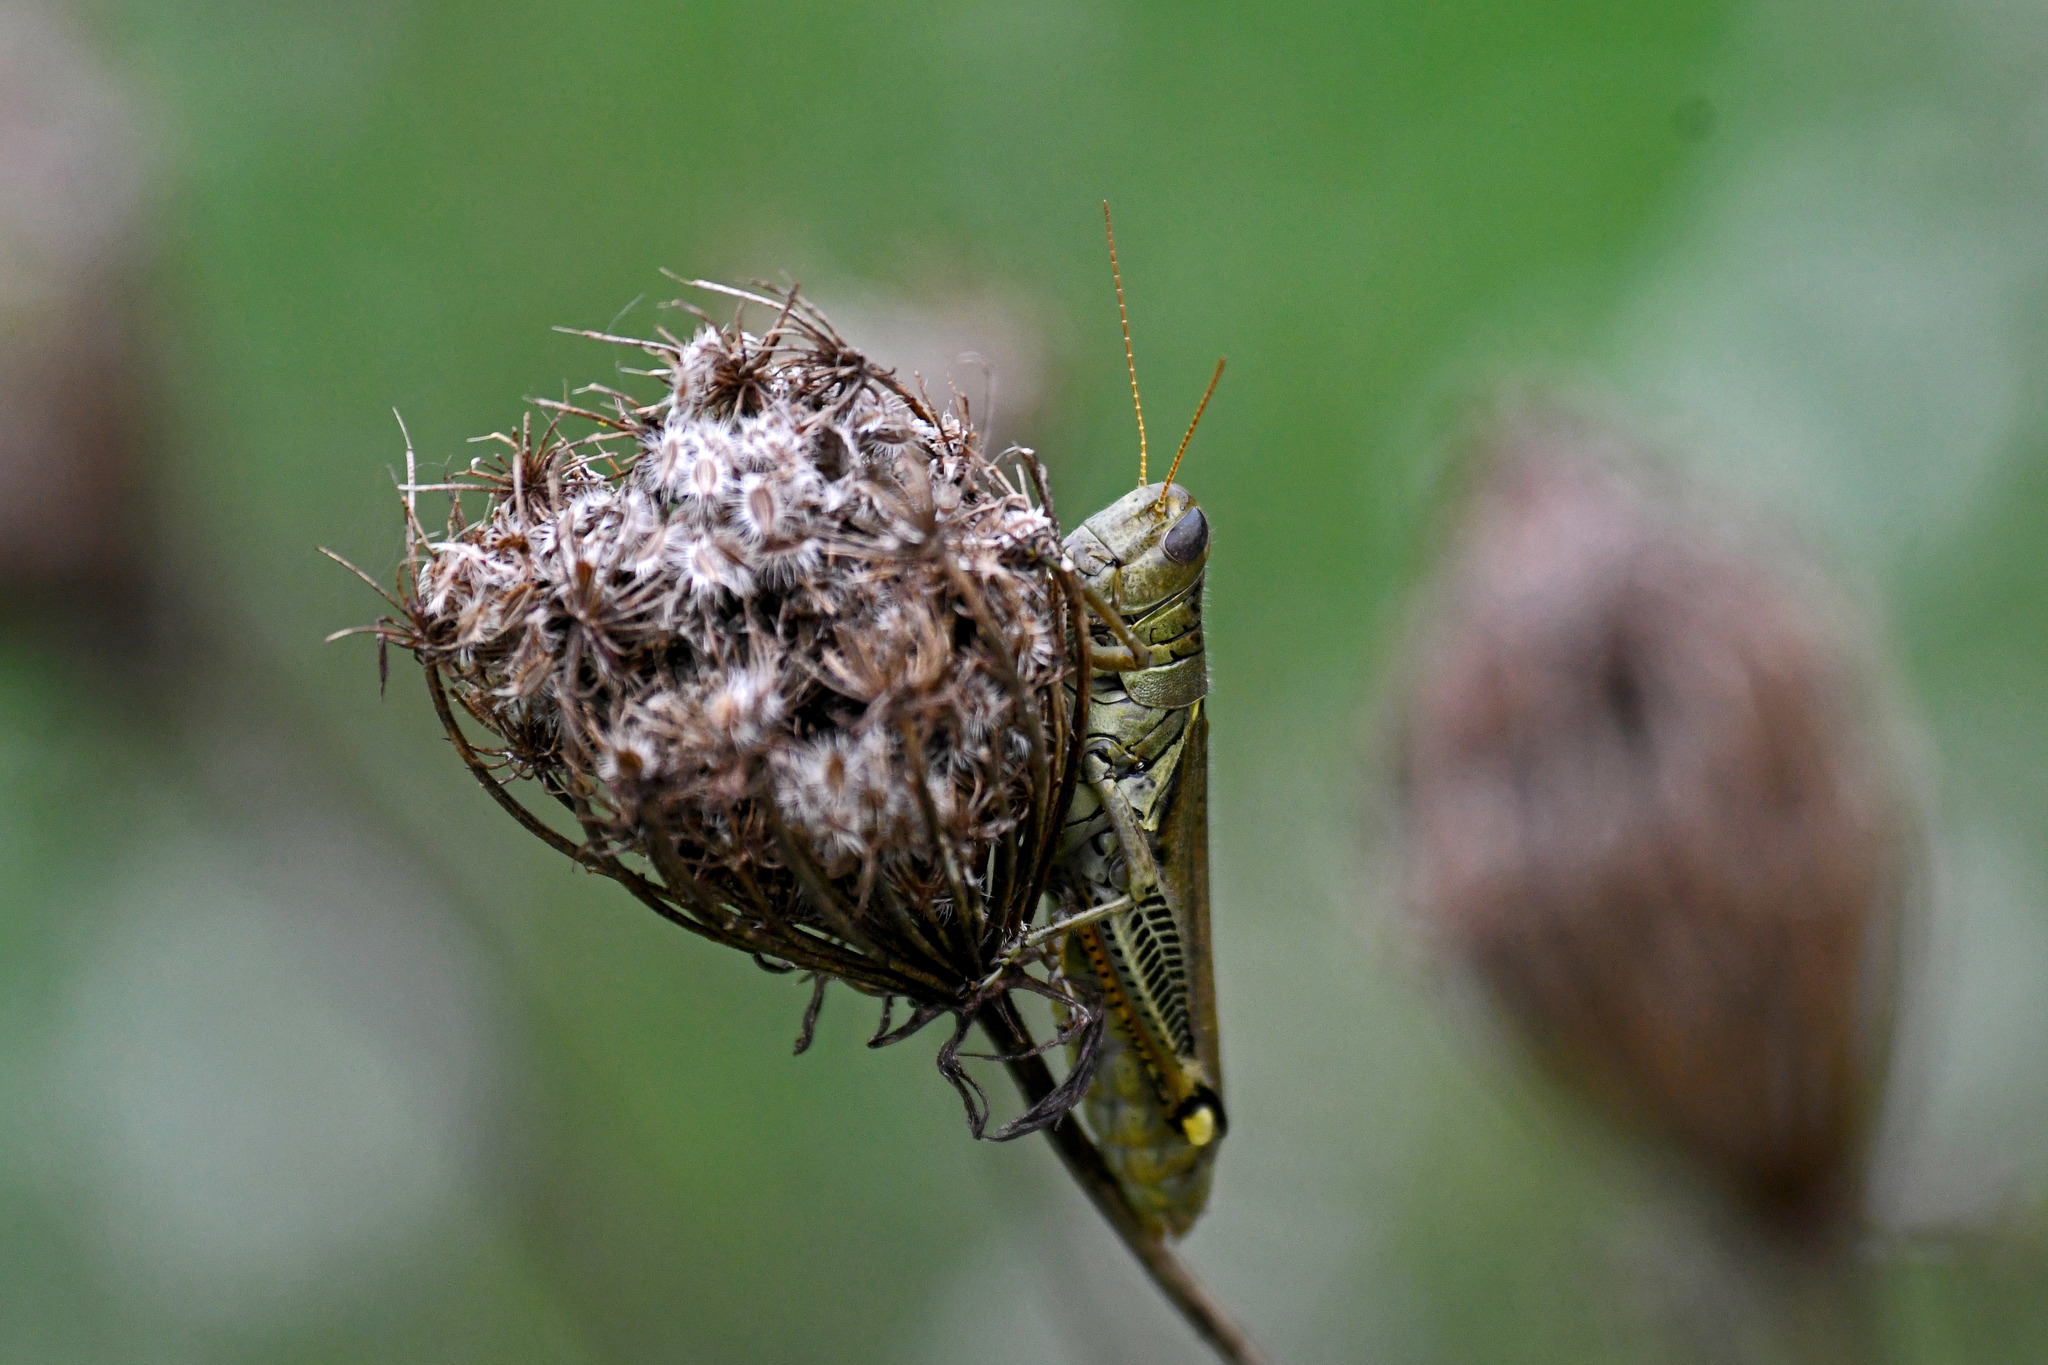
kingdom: Animalia
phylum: Arthropoda
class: Insecta
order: Orthoptera
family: Acrididae
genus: Melanoplus
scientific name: Melanoplus differentialis
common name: Differential grasshopper
